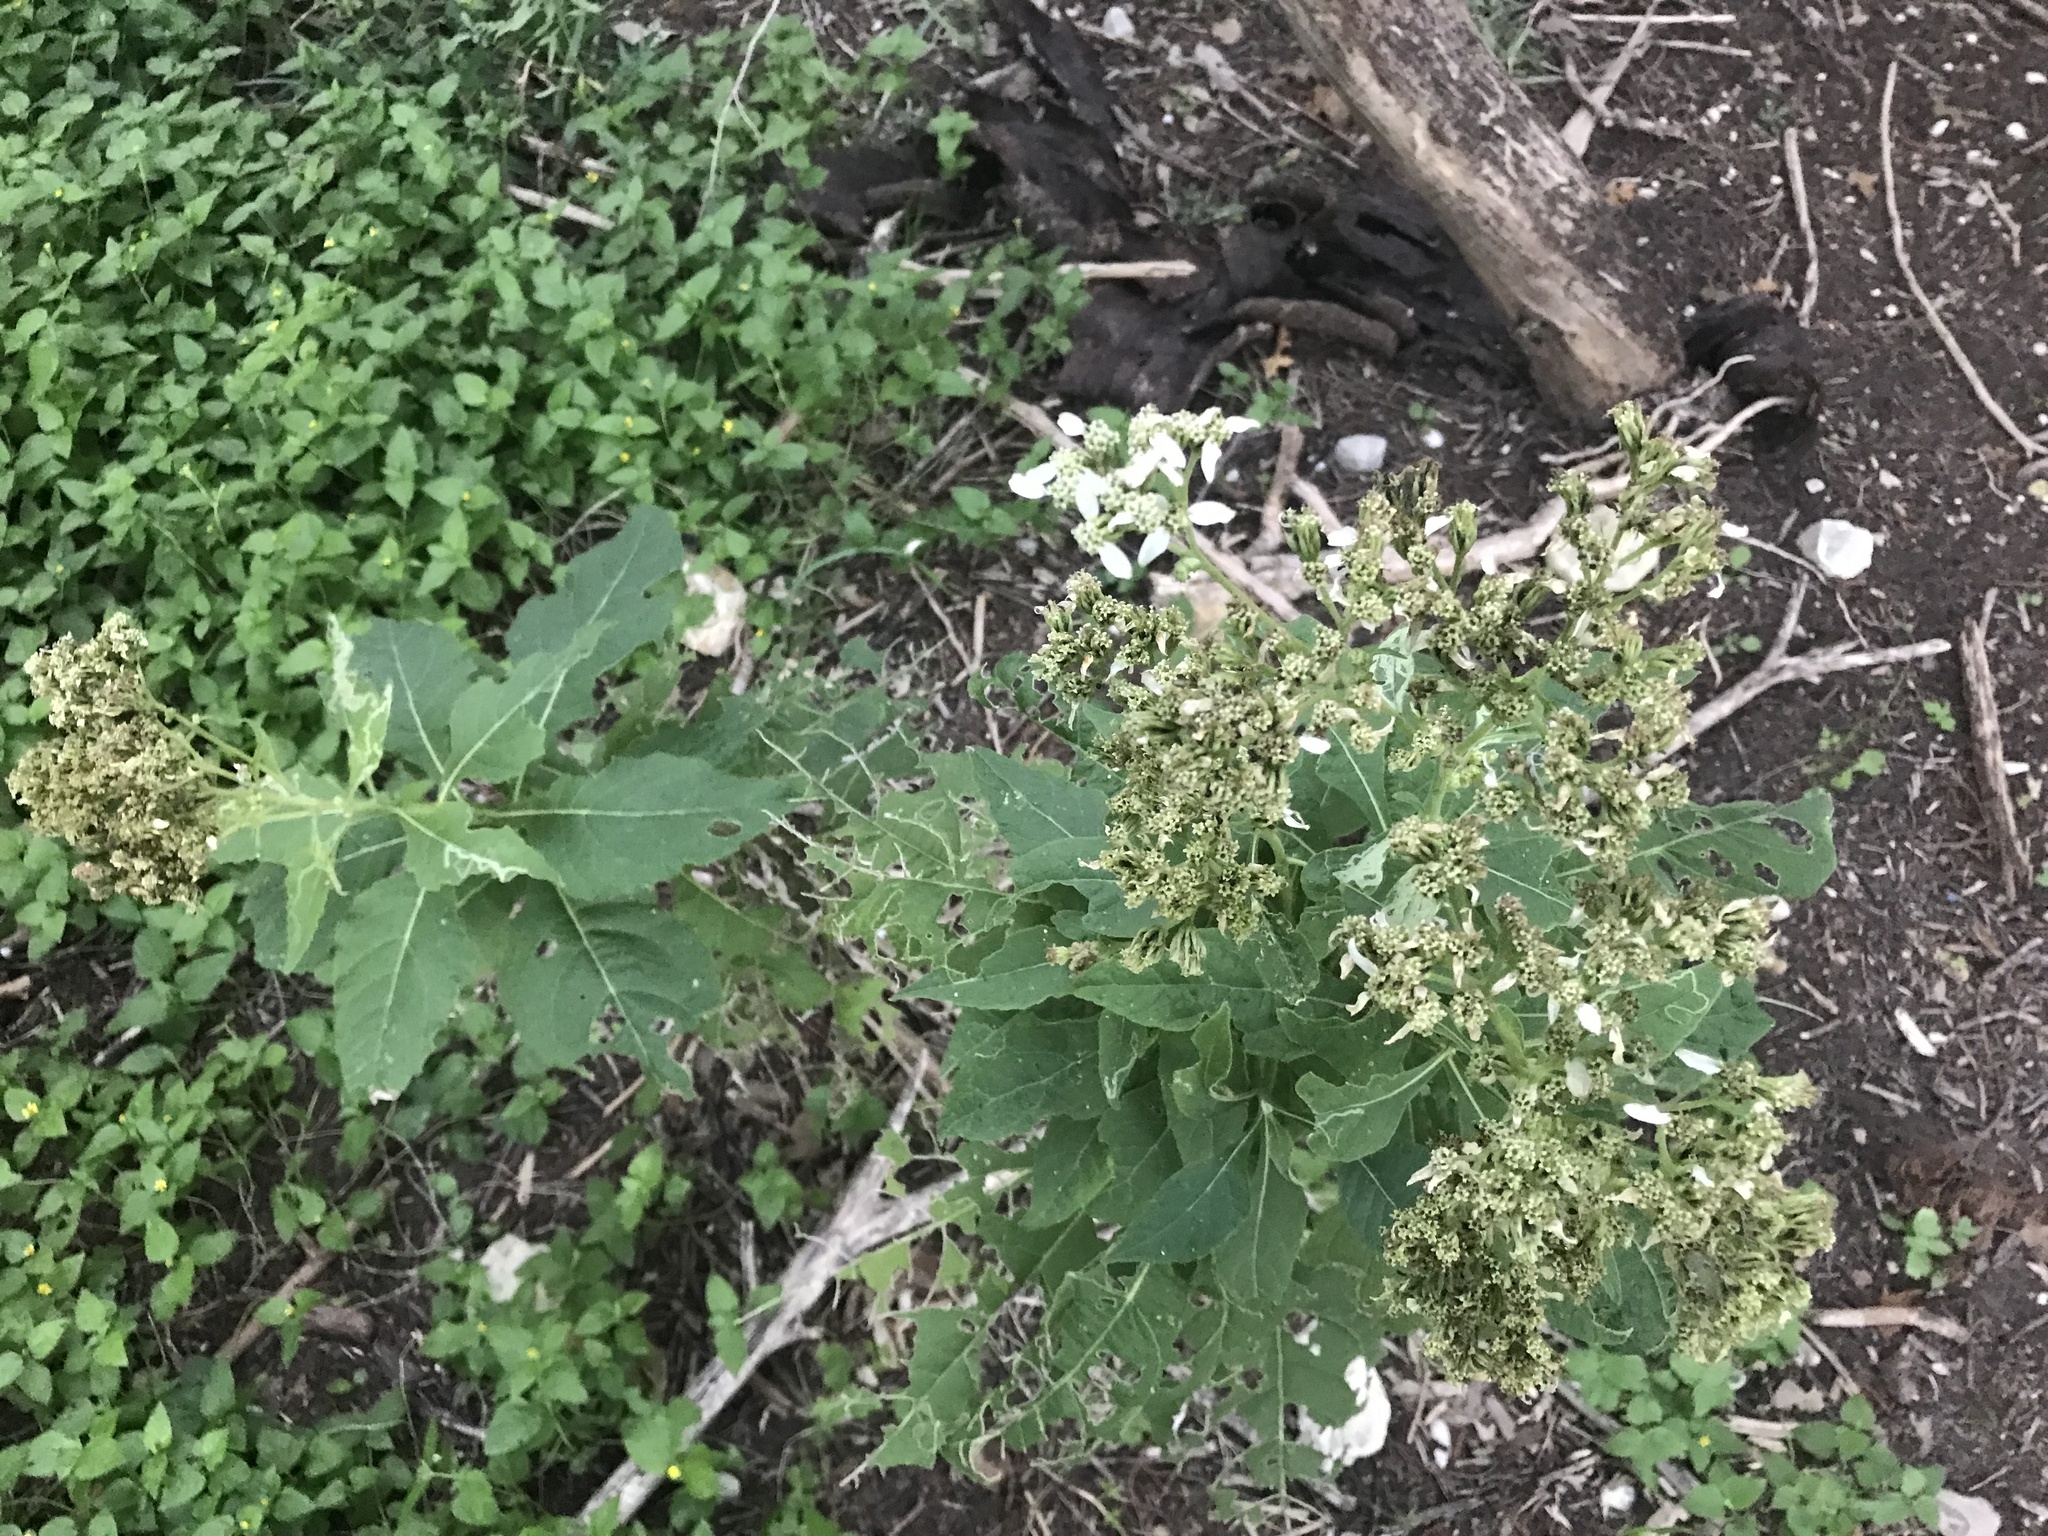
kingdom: Plantae
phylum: Tracheophyta
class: Magnoliopsida
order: Asterales
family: Asteraceae
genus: Verbesina
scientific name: Verbesina virginica
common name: Frostweed
